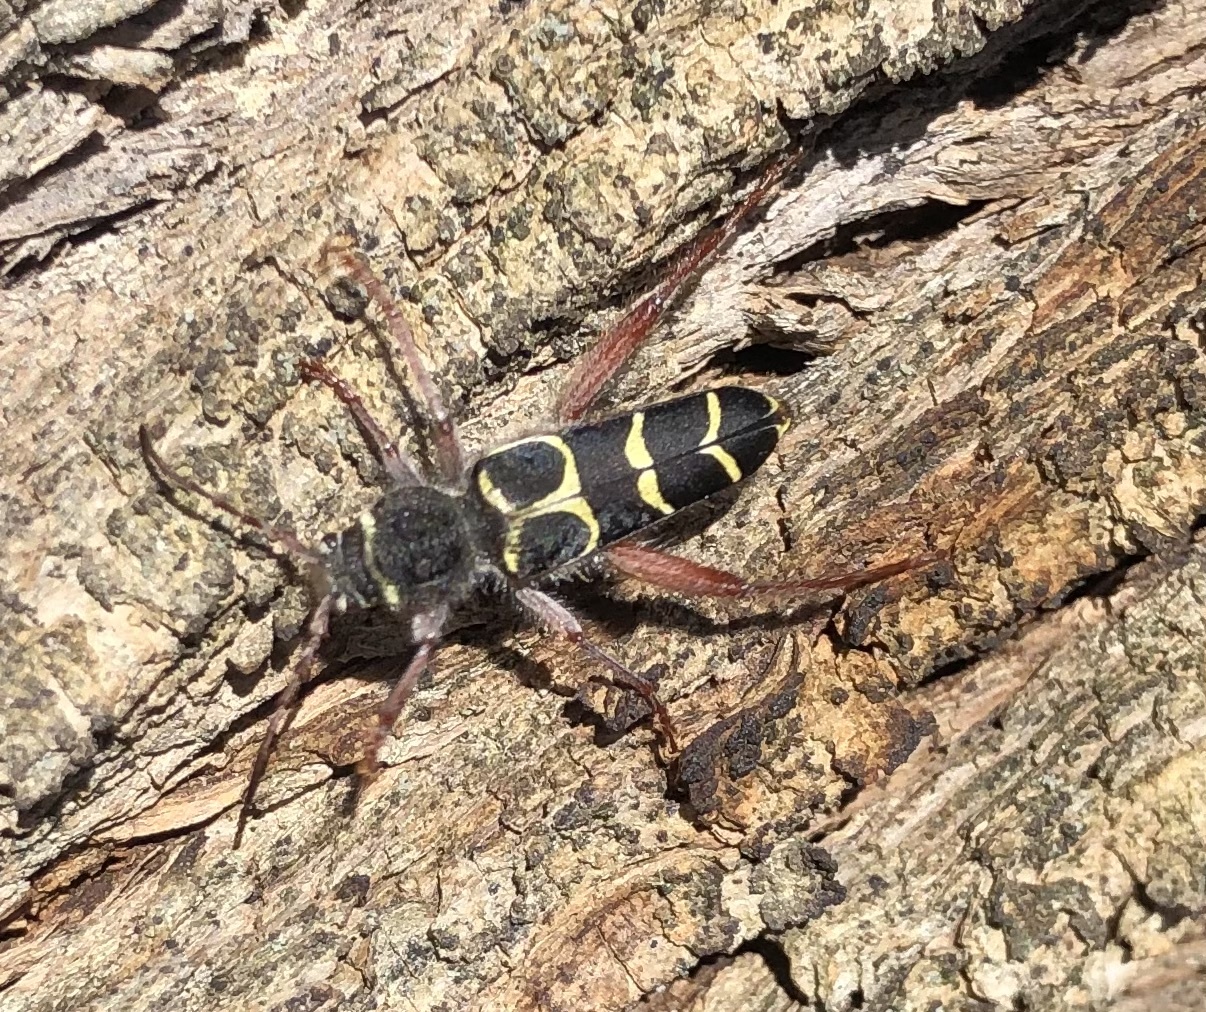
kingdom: Animalia
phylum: Arthropoda
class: Insecta
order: Coleoptera
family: Cerambycidae
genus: Neoclytus
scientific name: Neoclytus caprea
